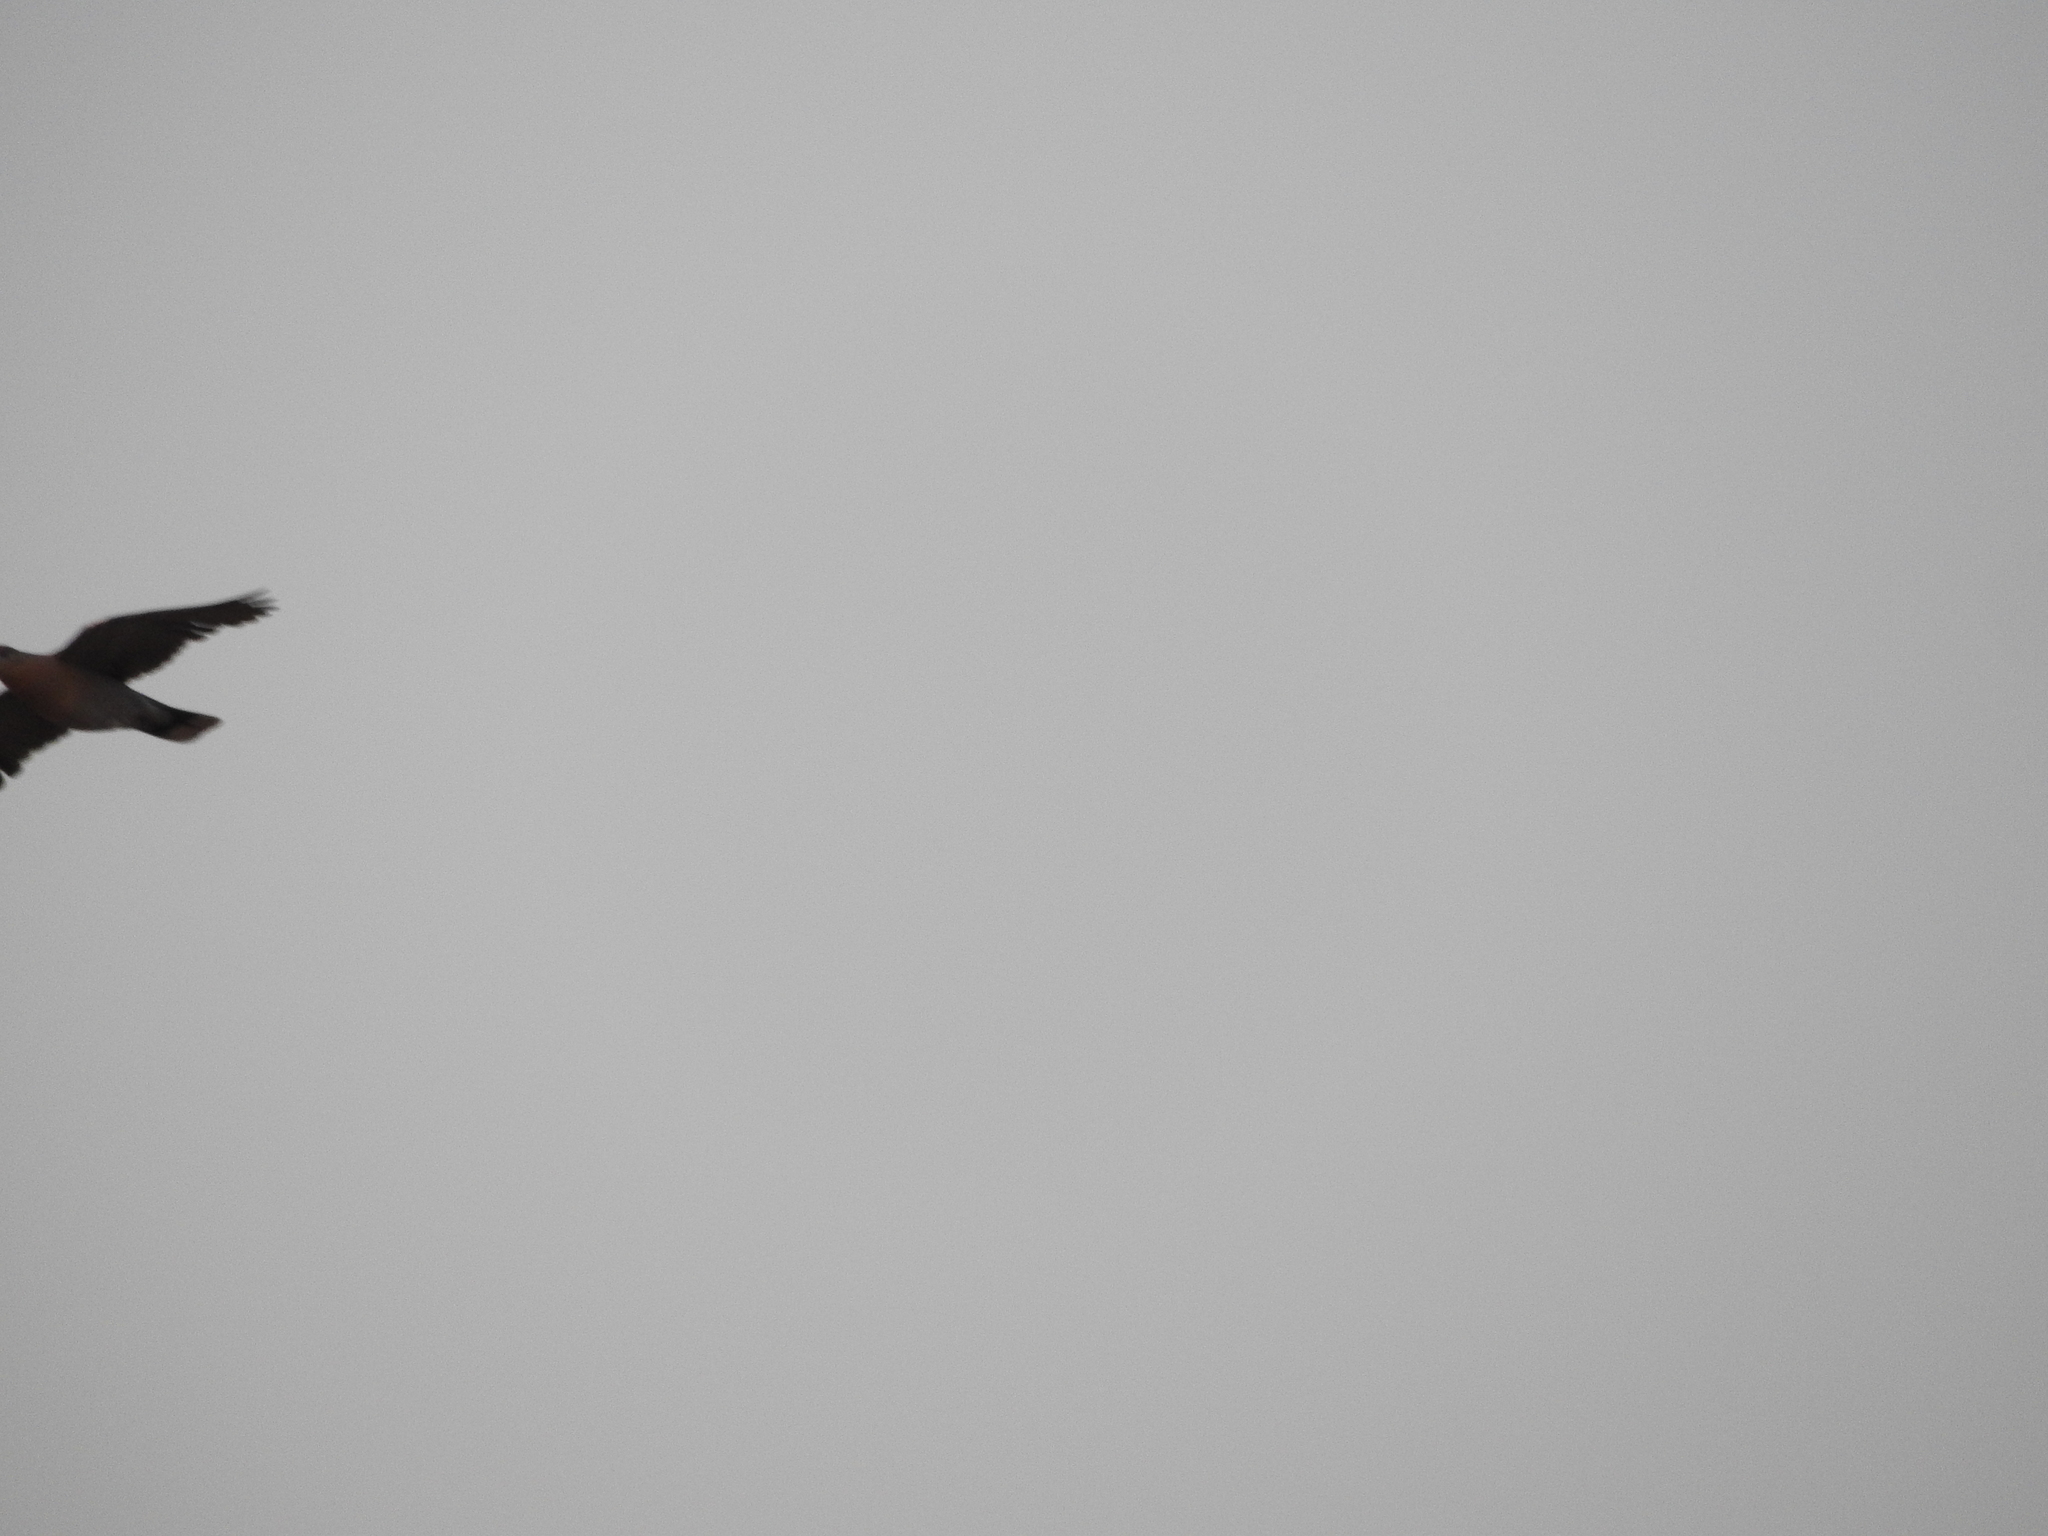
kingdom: Animalia
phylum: Chordata
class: Aves
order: Passeriformes
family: Icteridae
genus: Quiscalus
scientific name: Quiscalus mexicanus
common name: Great-tailed grackle
